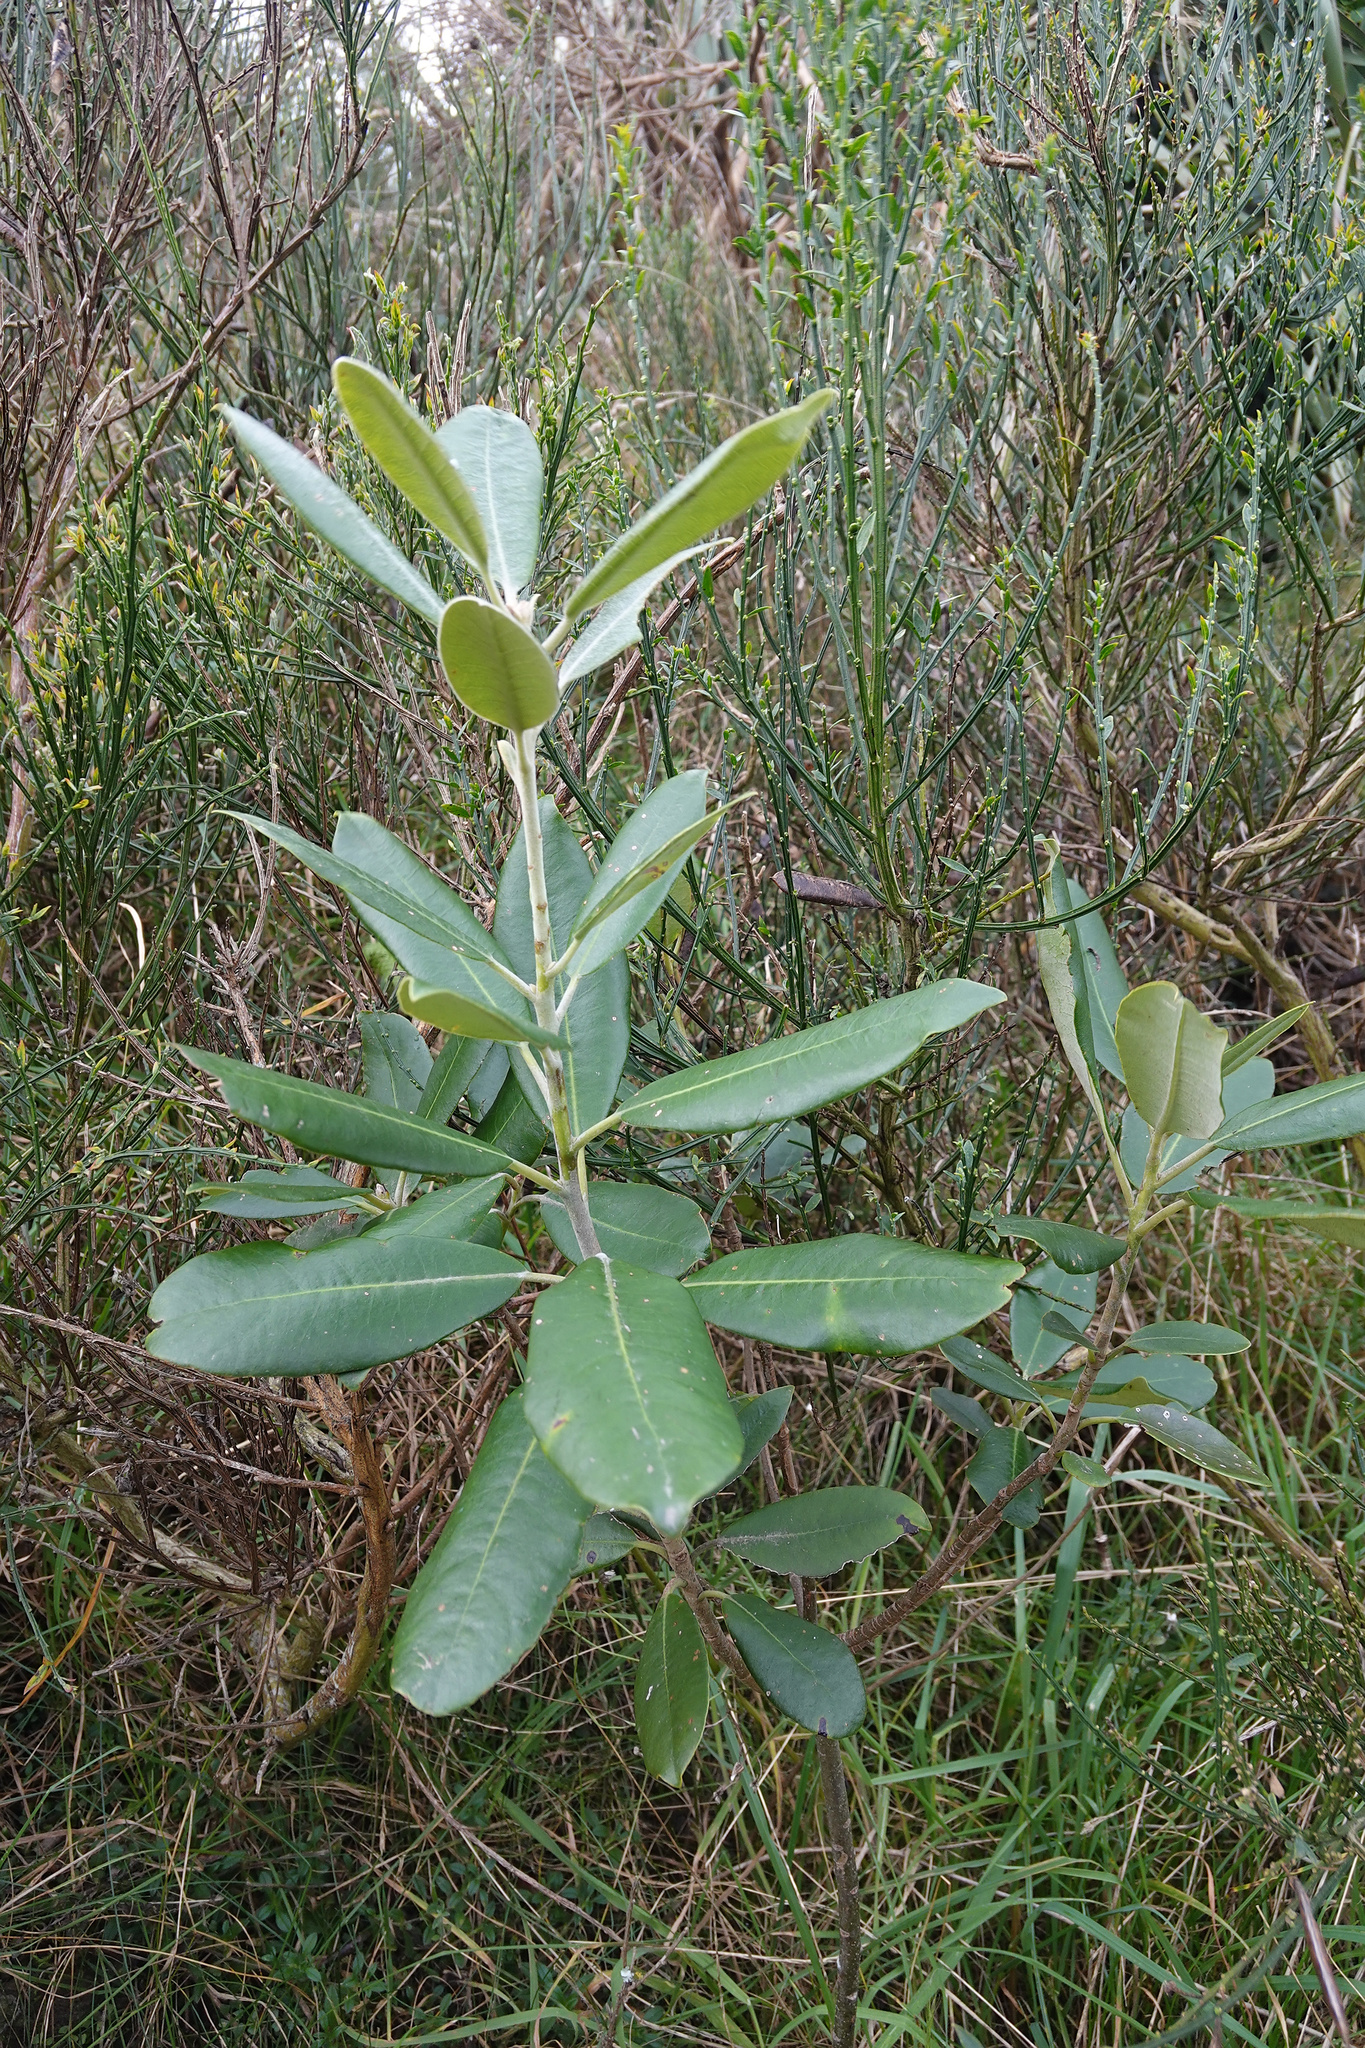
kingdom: Plantae
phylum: Tracheophyta
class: Magnoliopsida
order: Apiales
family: Pittosporaceae
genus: Pittosporum
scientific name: Pittosporum ralphii
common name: Ralph's desertwillow
